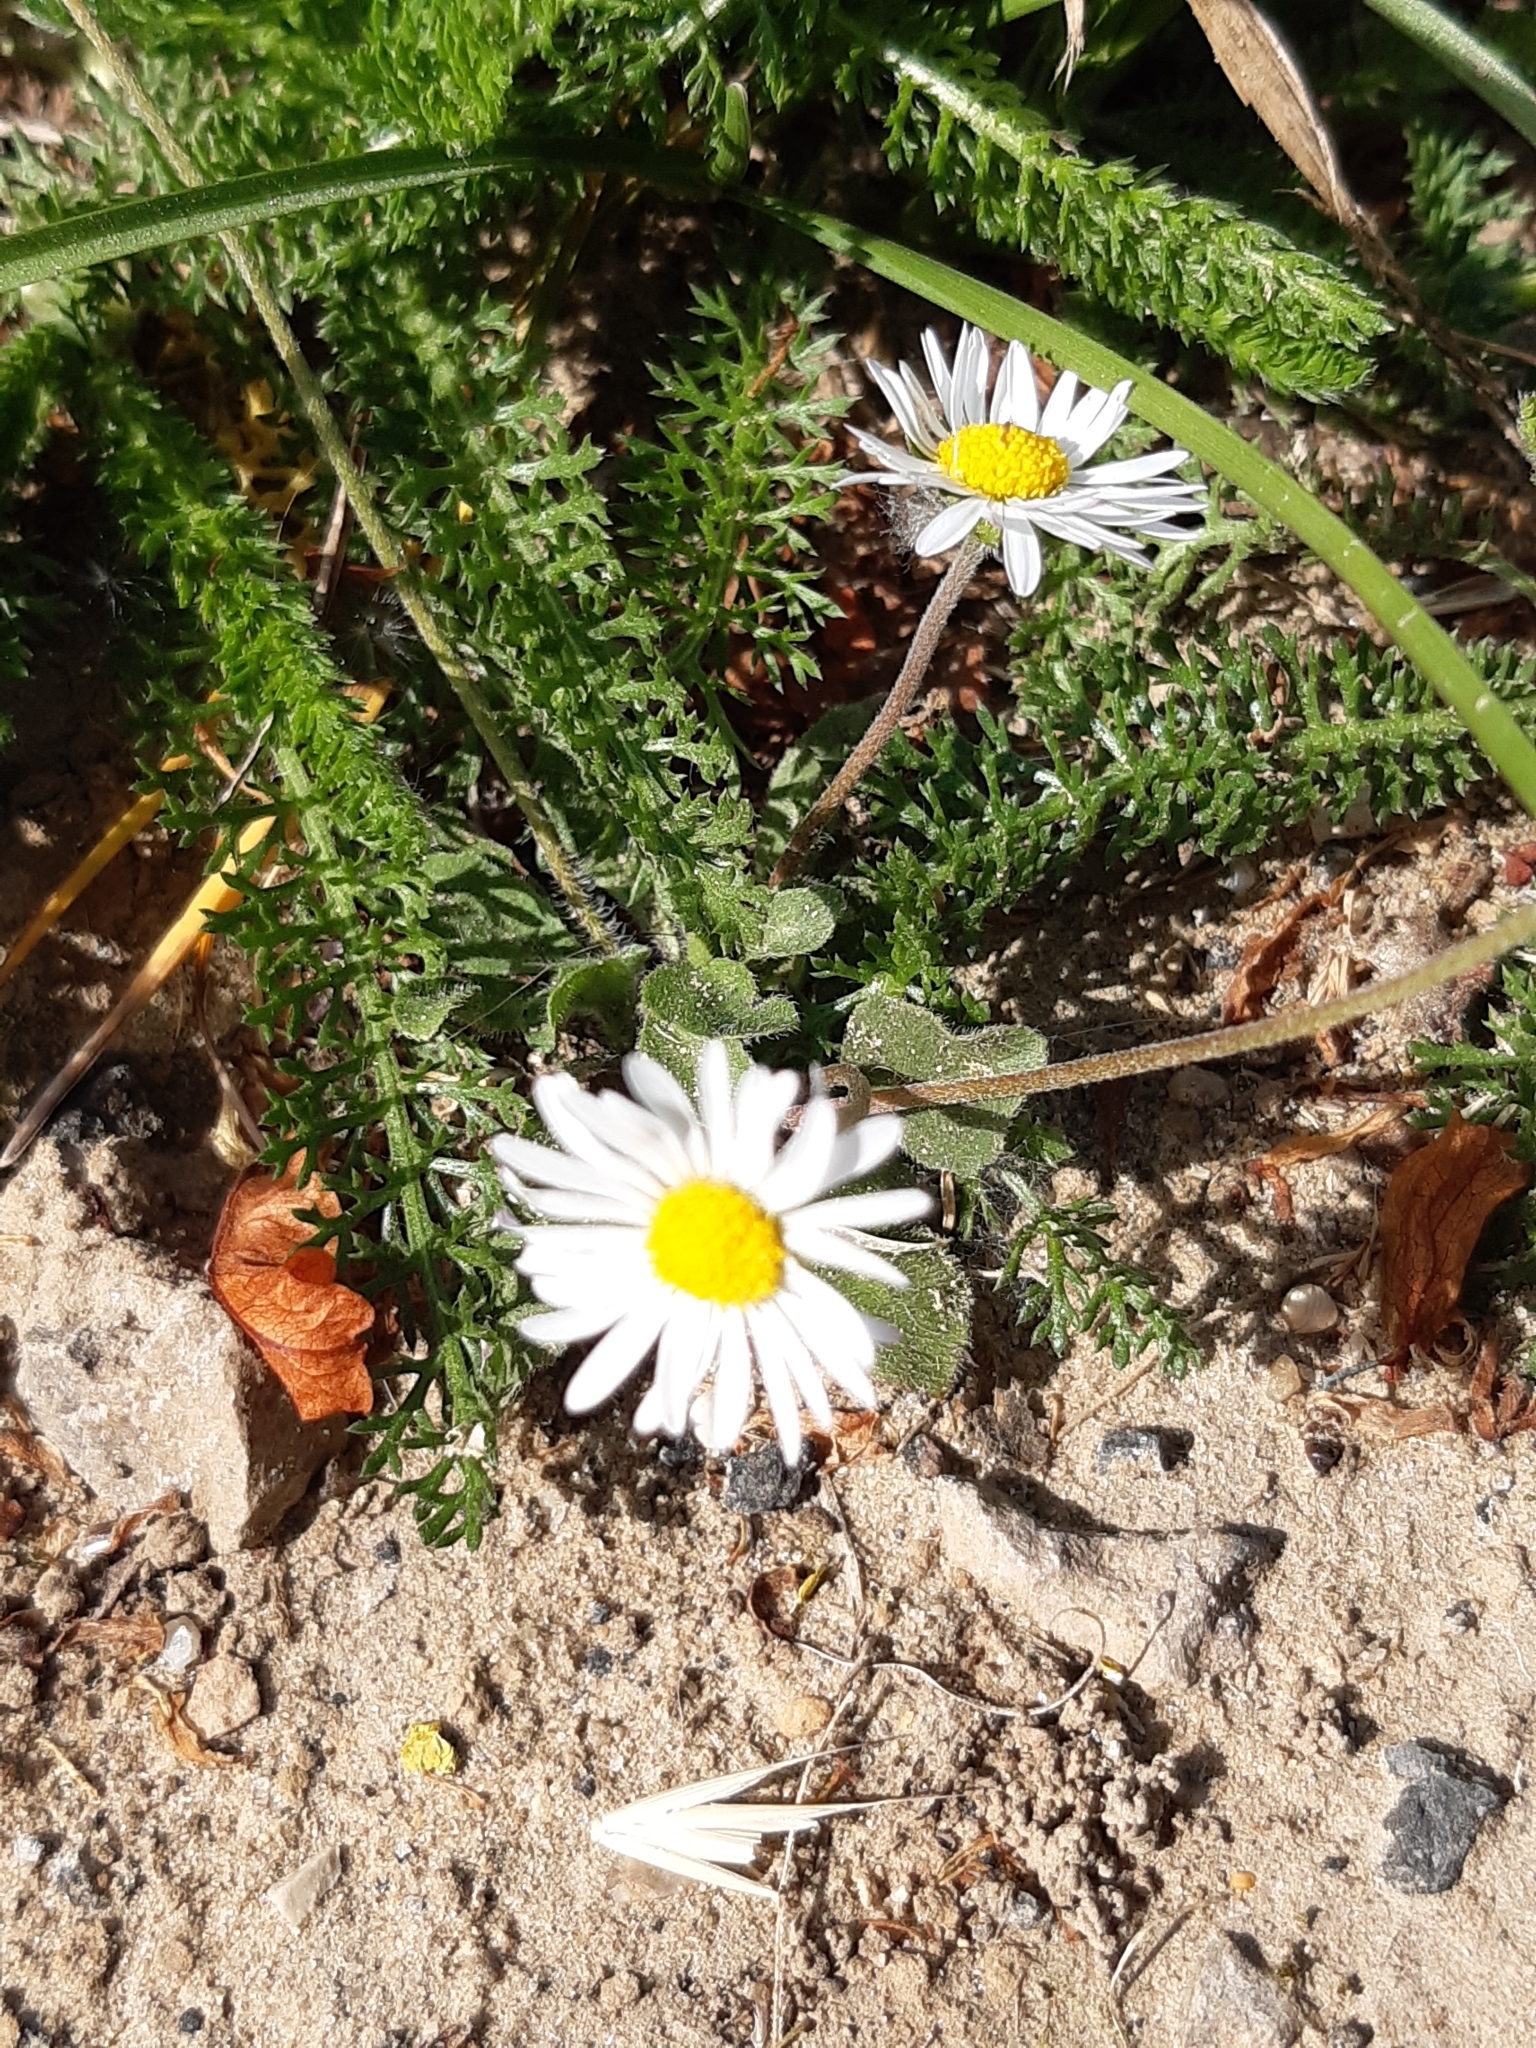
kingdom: Plantae
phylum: Tracheophyta
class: Magnoliopsida
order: Asterales
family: Asteraceae
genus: Bellis
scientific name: Bellis perennis
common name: Lawndaisy
